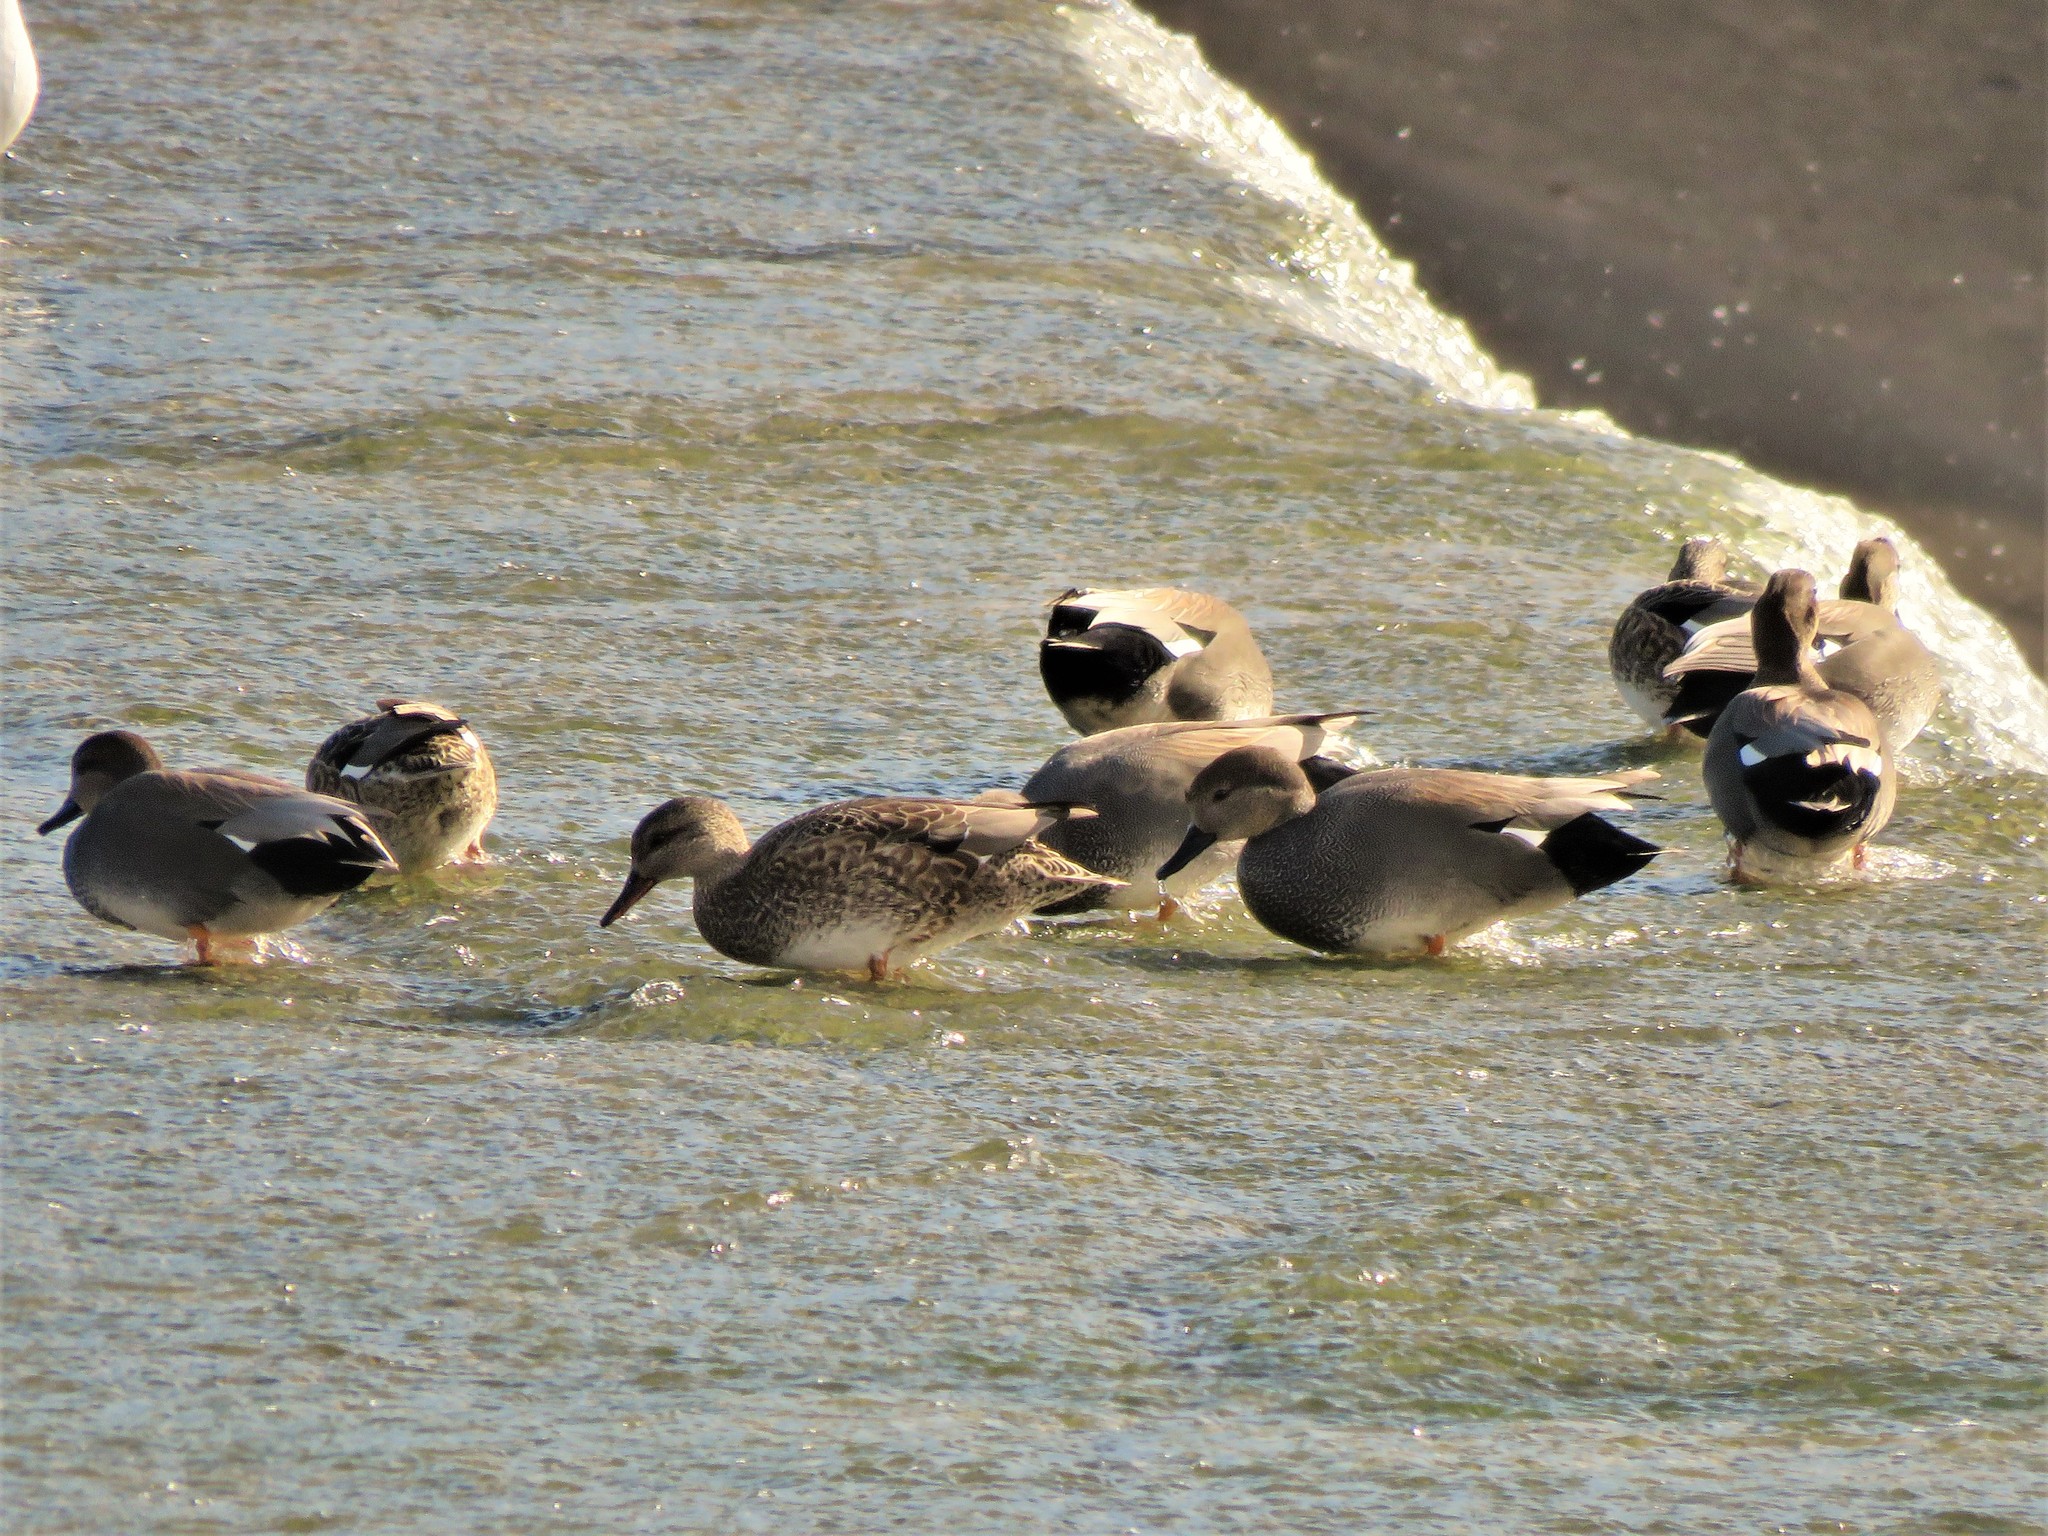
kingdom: Animalia
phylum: Chordata
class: Aves
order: Anseriformes
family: Anatidae
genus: Mareca
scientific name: Mareca strepera
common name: Gadwall
